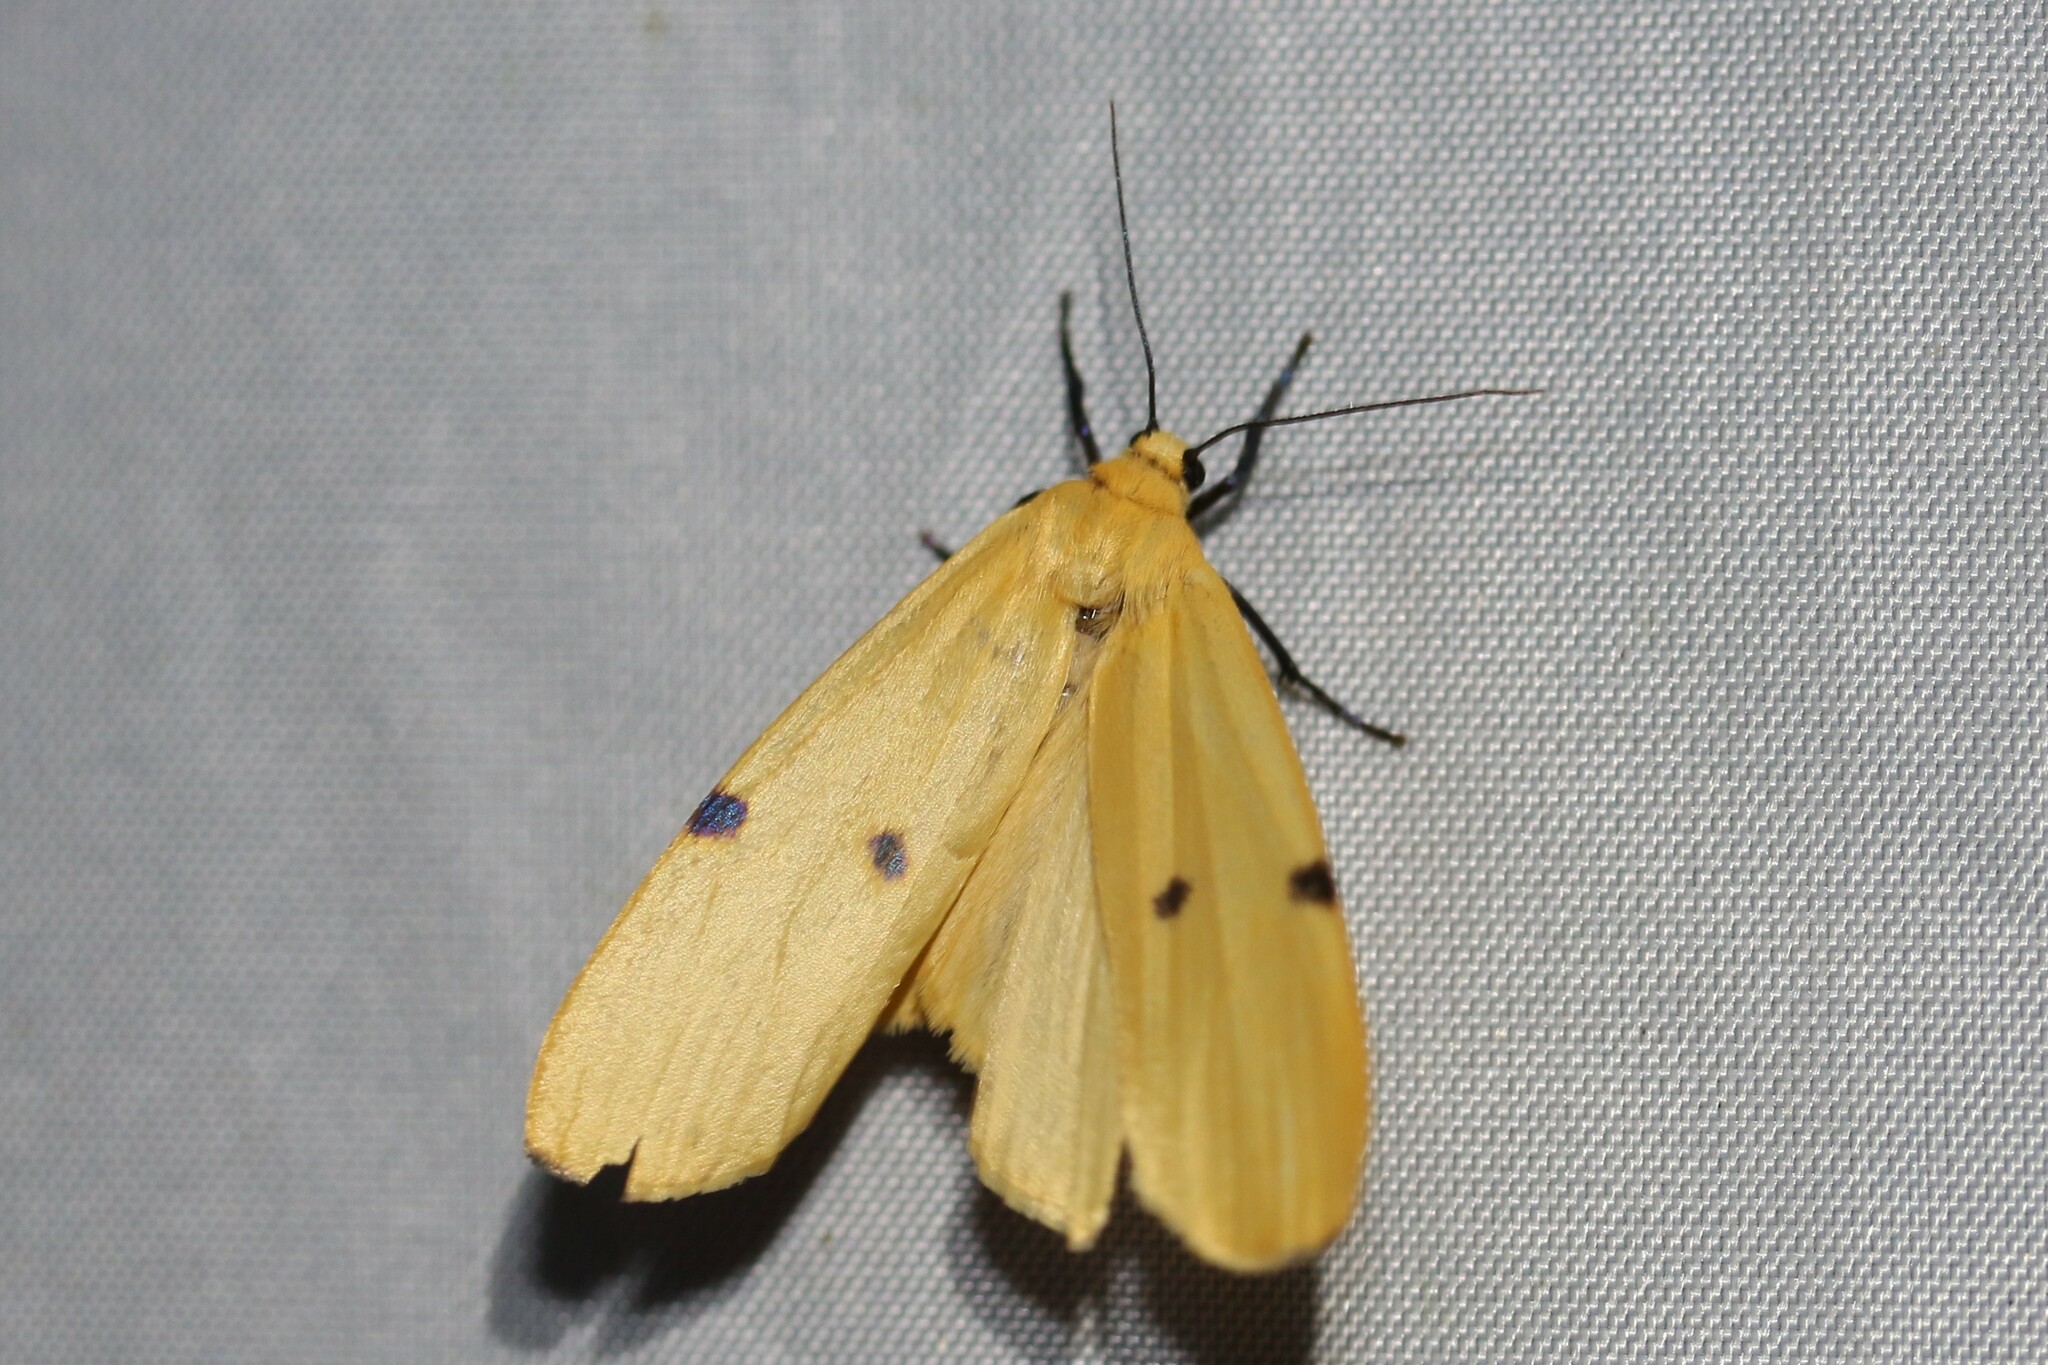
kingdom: Animalia
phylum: Arthropoda
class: Insecta
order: Lepidoptera
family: Erebidae
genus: Lithosia
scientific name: Lithosia quadra
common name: Four-spotted footman
